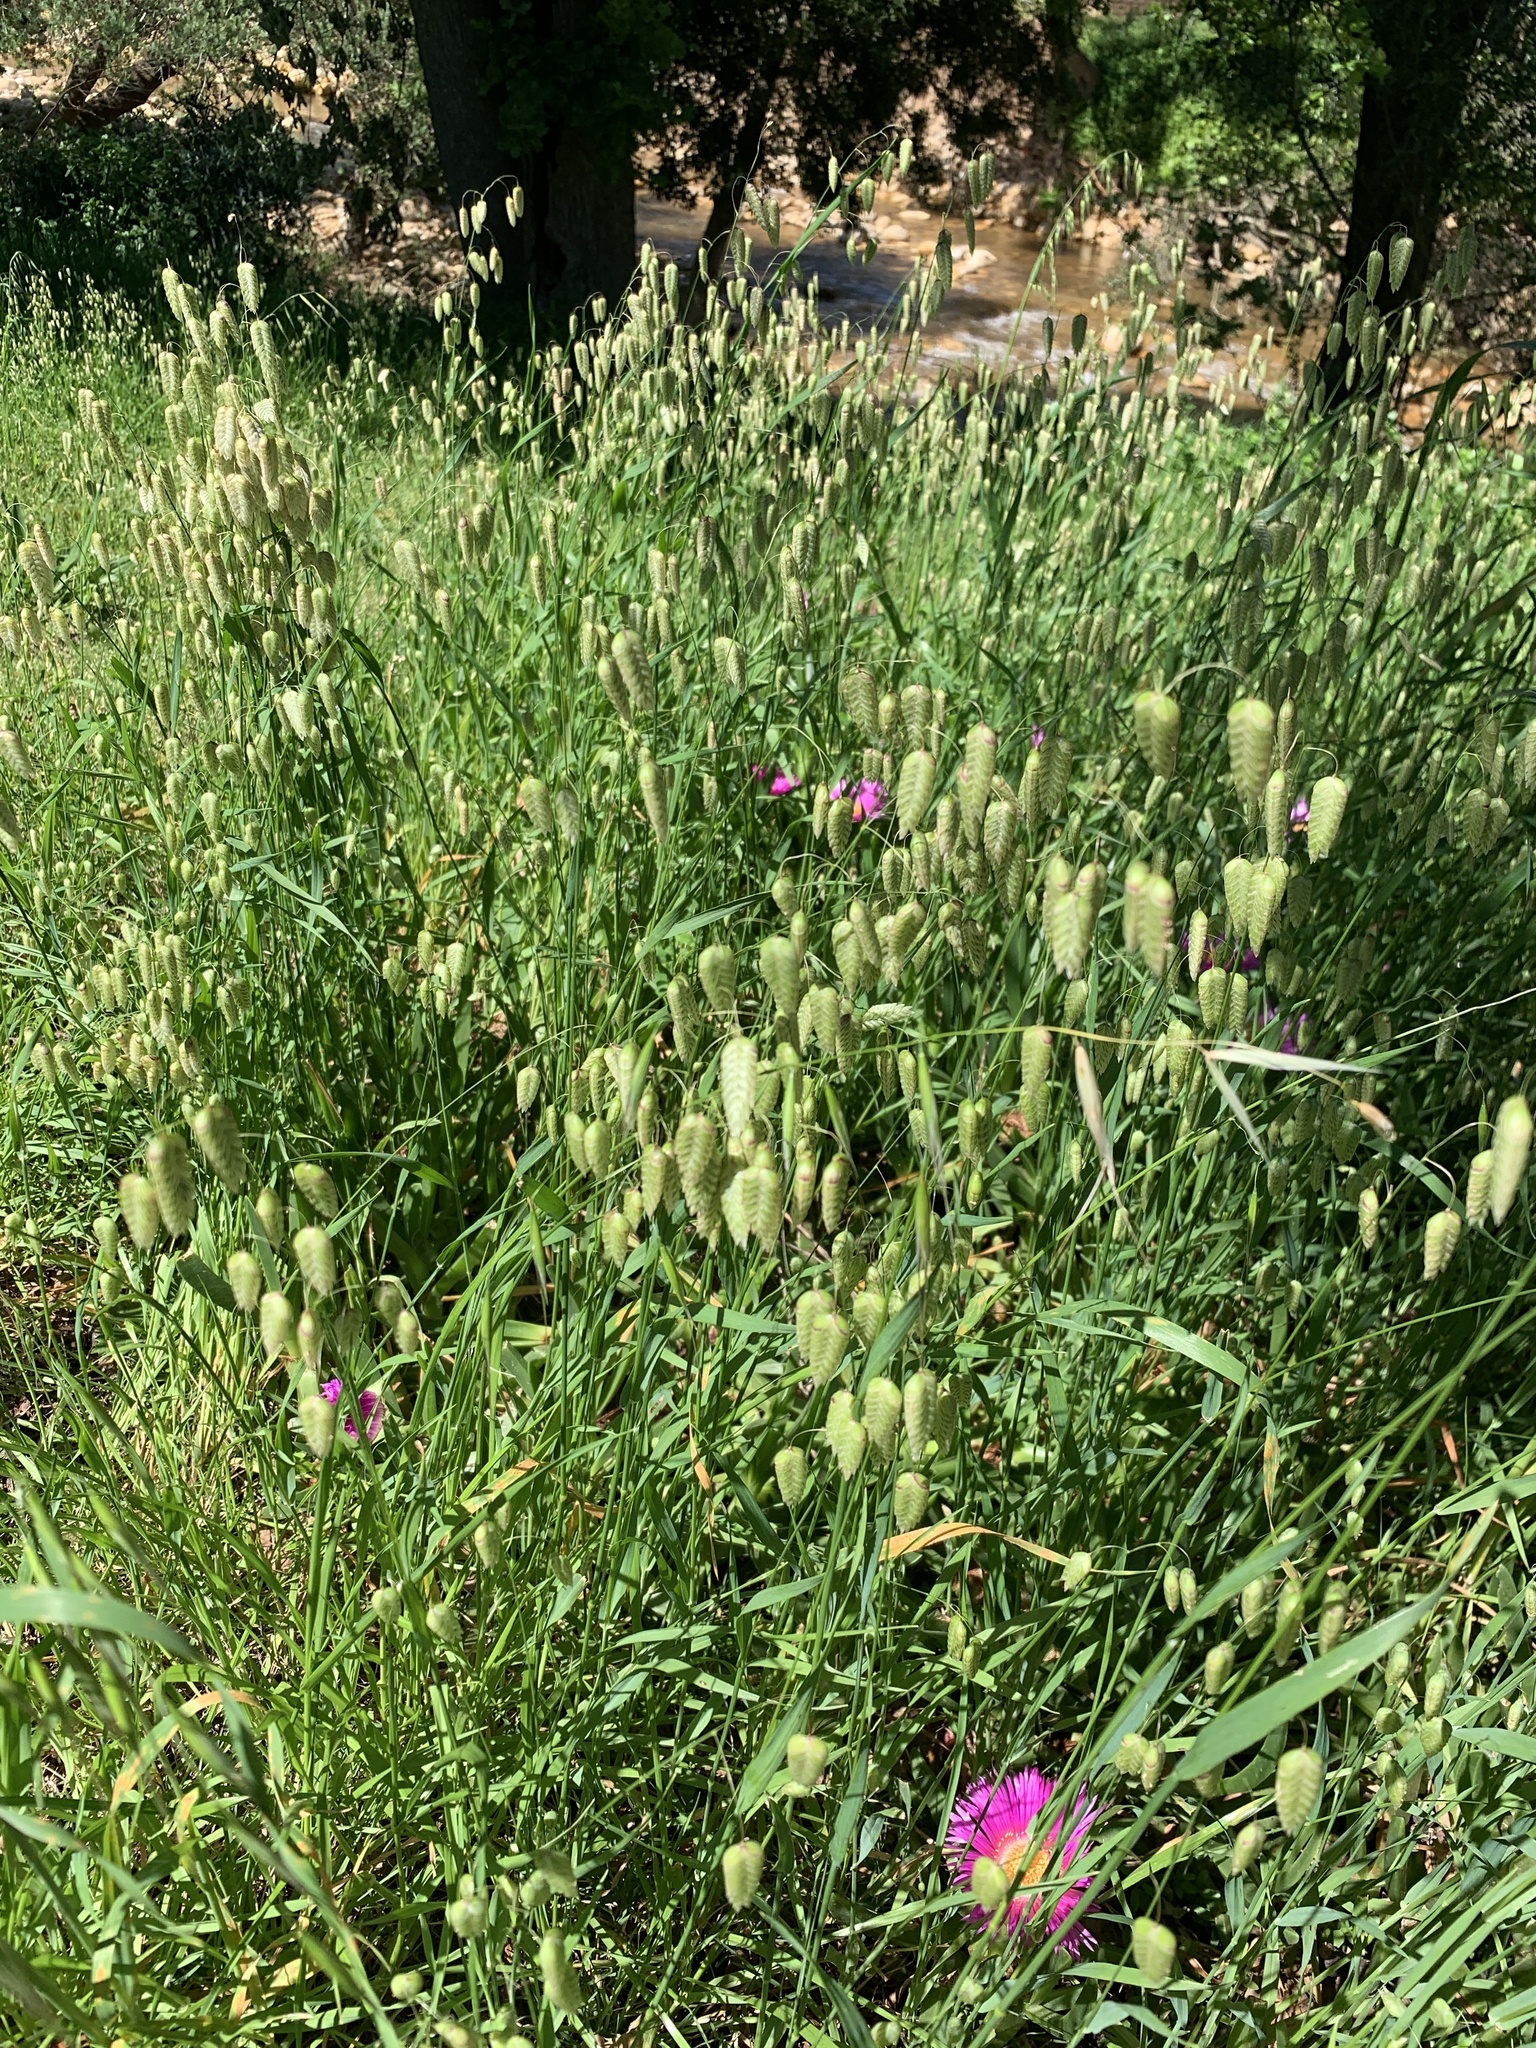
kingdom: Plantae
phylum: Tracheophyta
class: Liliopsida
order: Poales
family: Poaceae
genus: Briza
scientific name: Briza maxima
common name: Big quakinggrass
